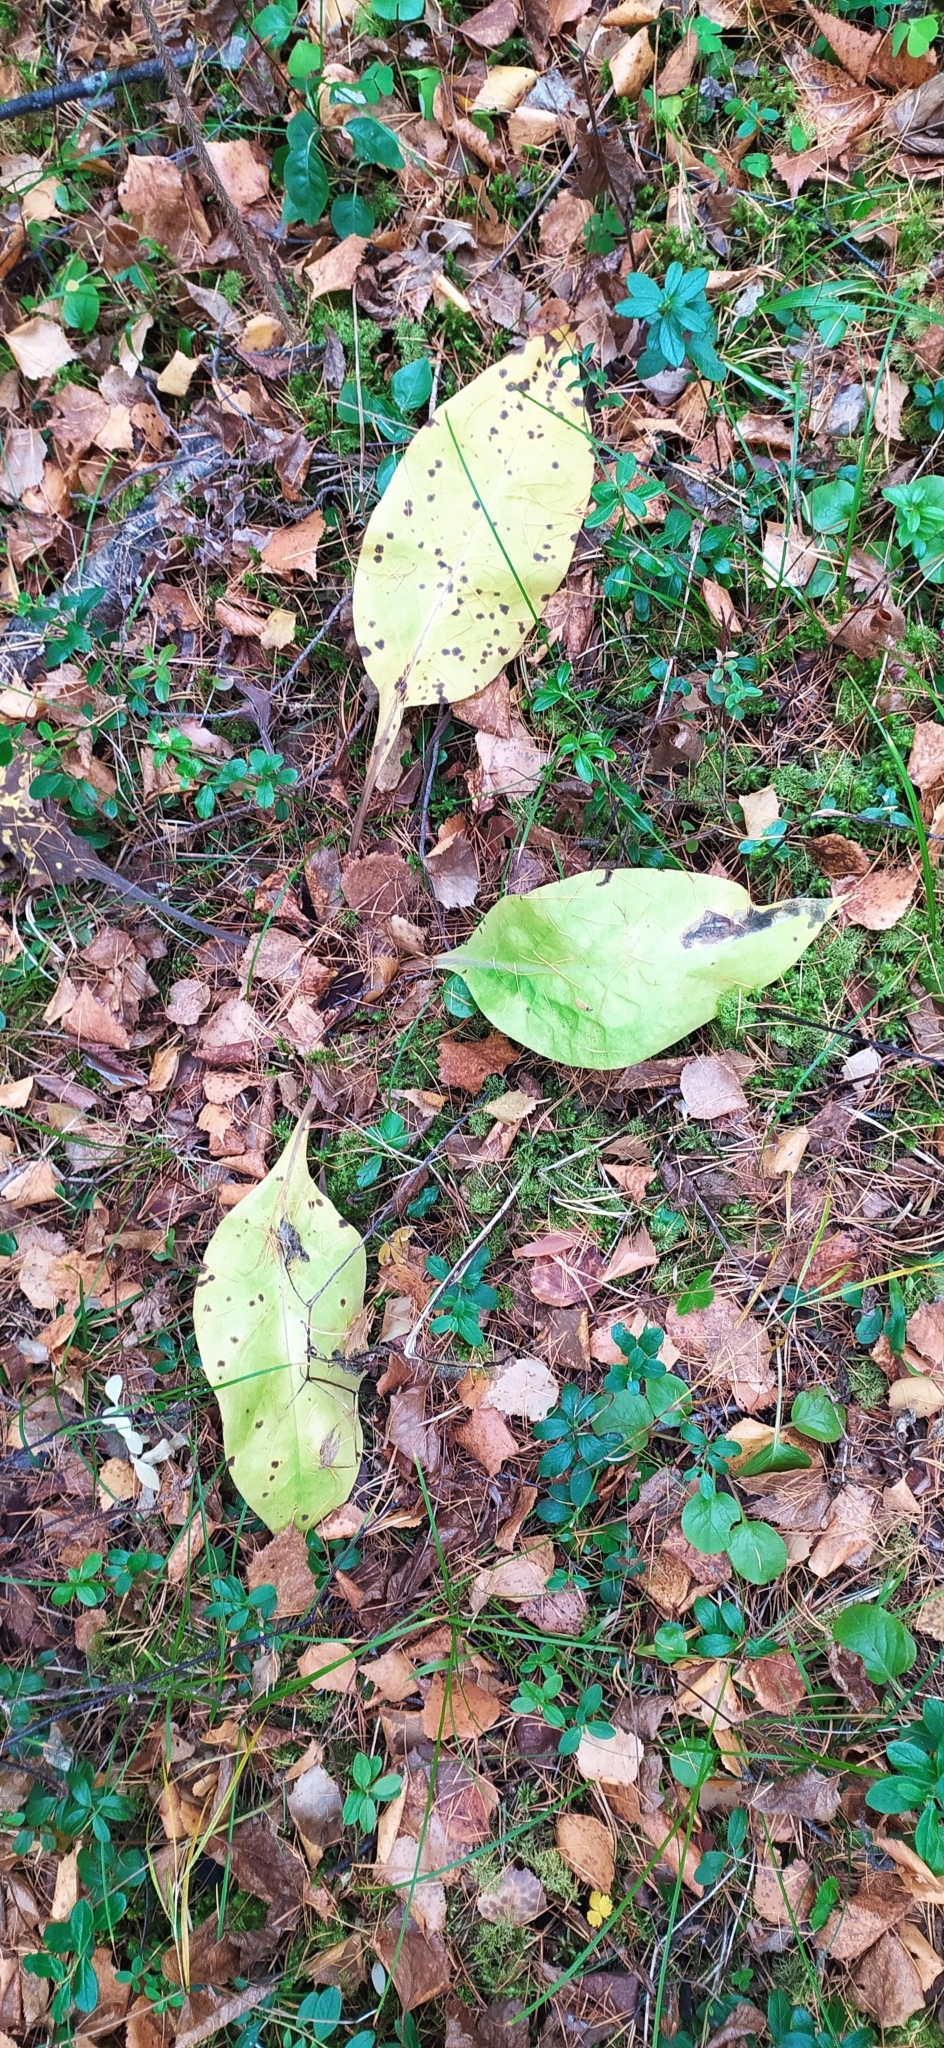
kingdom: Plantae
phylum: Tracheophyta
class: Magnoliopsida
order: Boraginales
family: Boraginaceae
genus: Pulmonaria
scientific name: Pulmonaria mollis
